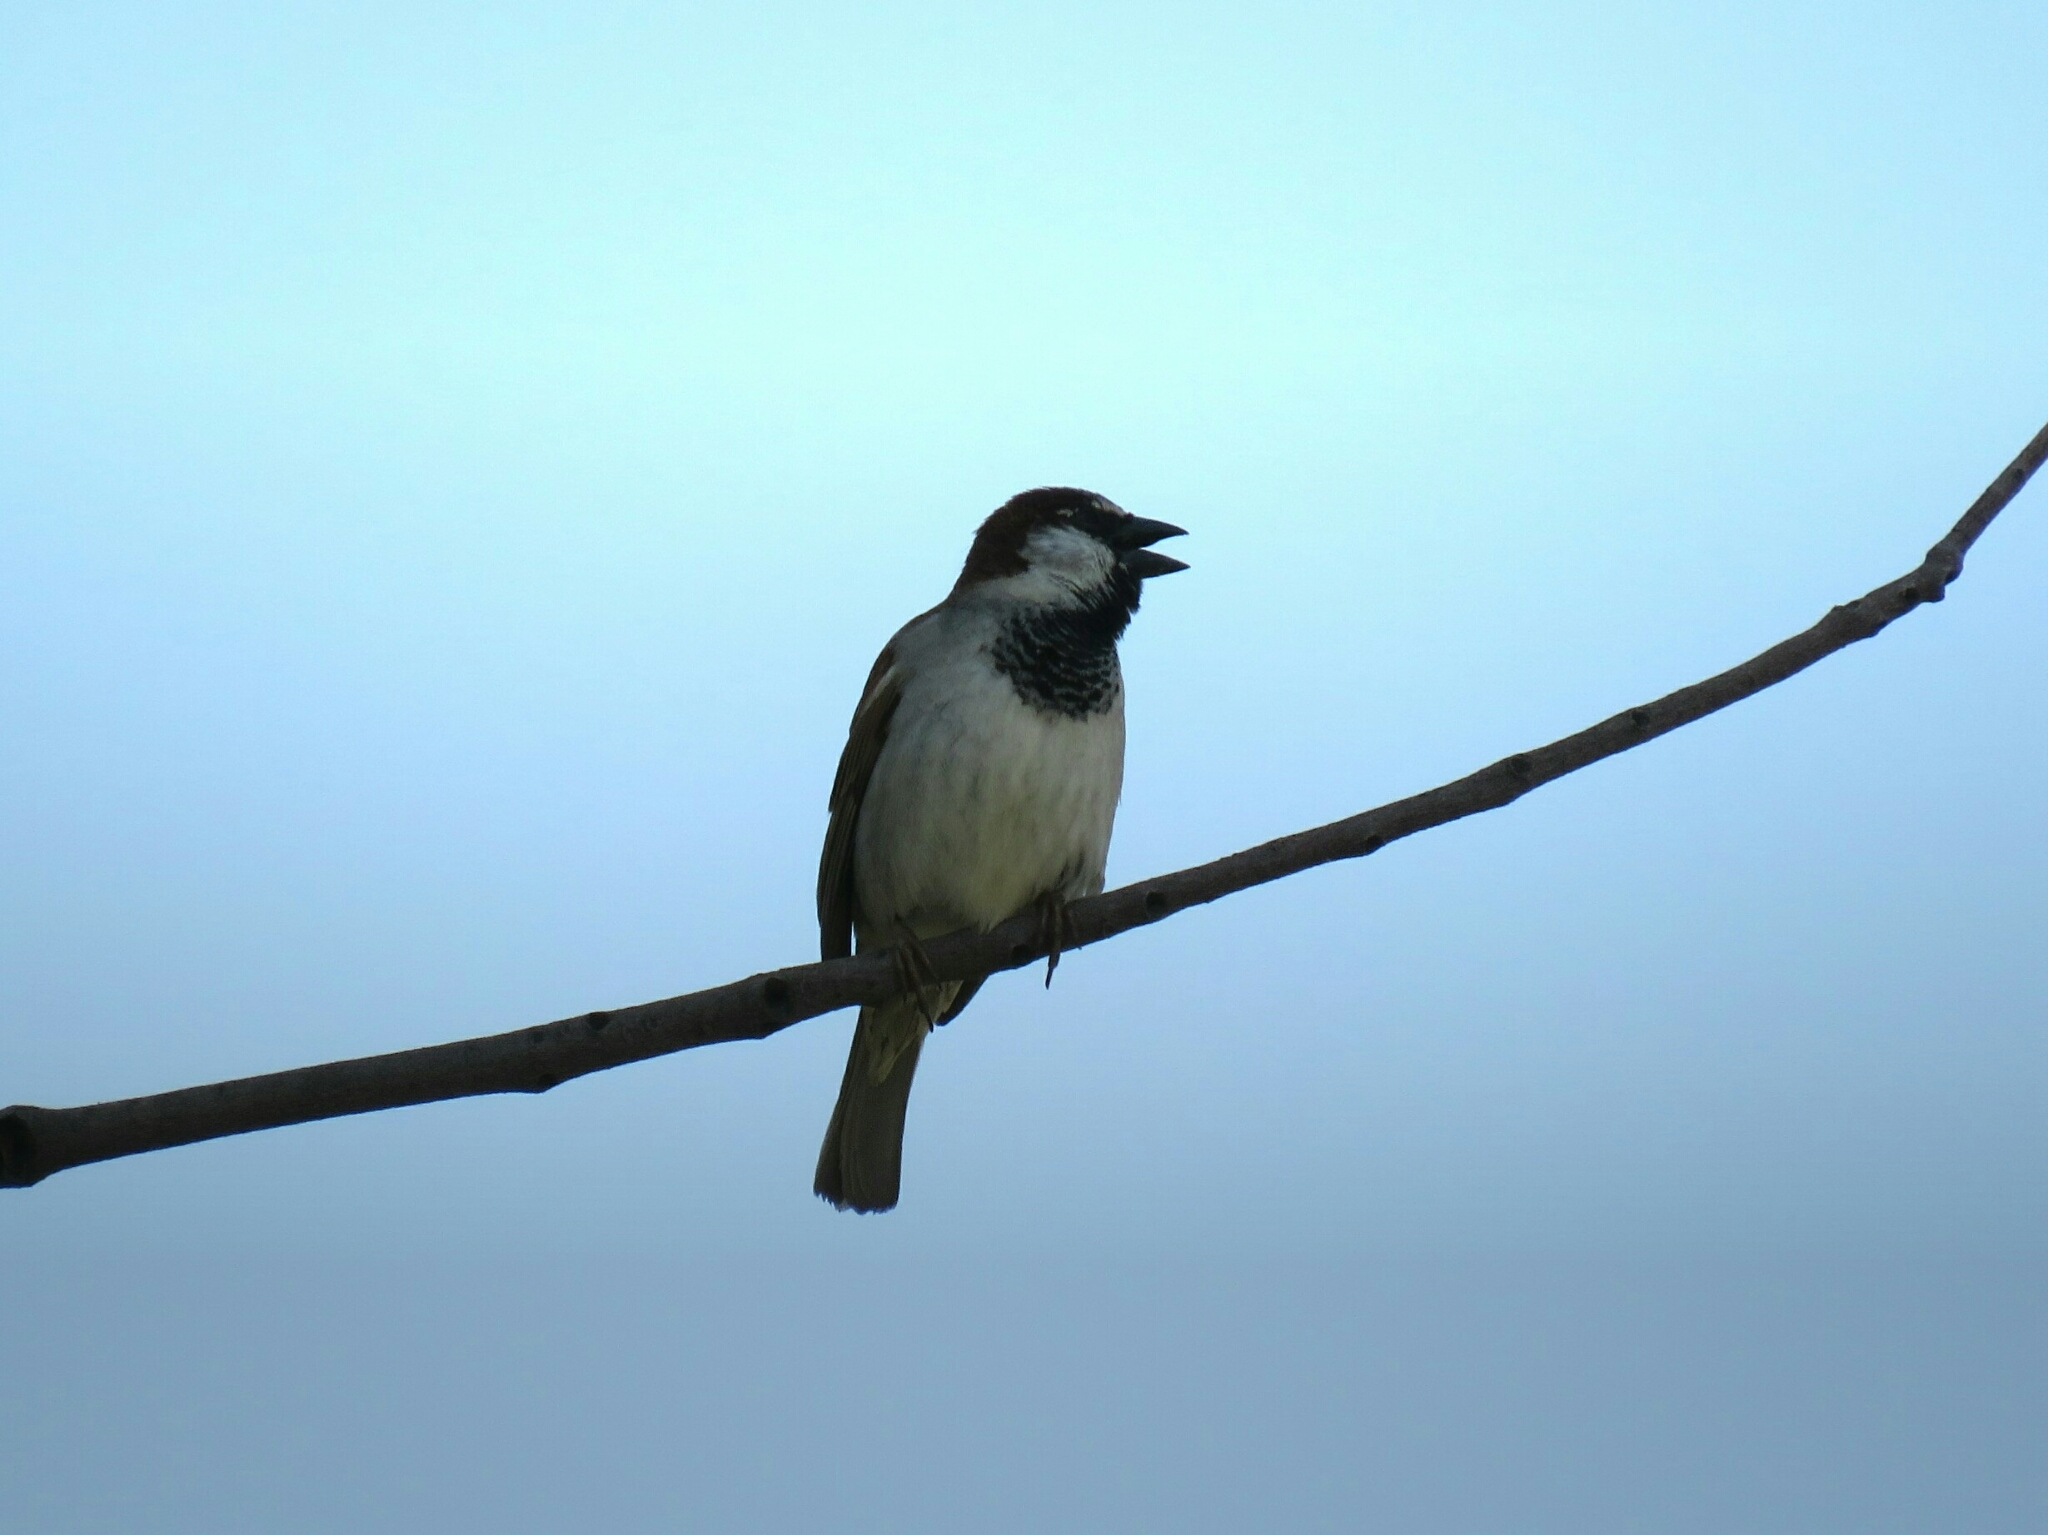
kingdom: Animalia
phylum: Chordata
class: Aves
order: Passeriformes
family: Passeridae
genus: Passer
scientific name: Passer domesticus
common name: House sparrow
